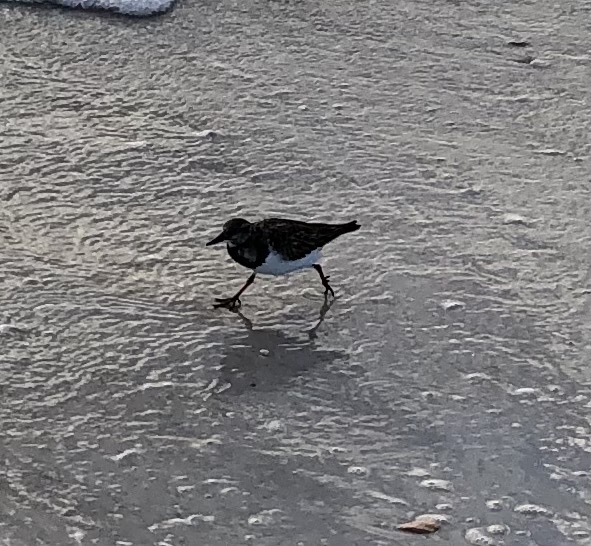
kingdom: Animalia
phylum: Chordata
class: Aves
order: Charadriiformes
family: Scolopacidae
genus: Arenaria
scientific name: Arenaria interpres
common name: Ruddy turnstone
